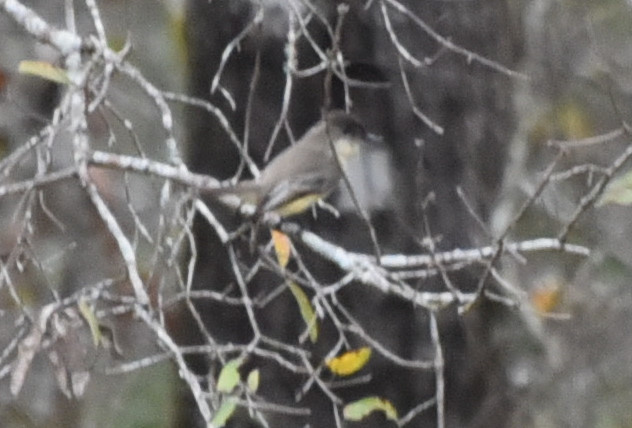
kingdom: Animalia
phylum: Chordata
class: Aves
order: Passeriformes
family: Tyrannidae
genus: Sayornis
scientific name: Sayornis phoebe
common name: Eastern phoebe
